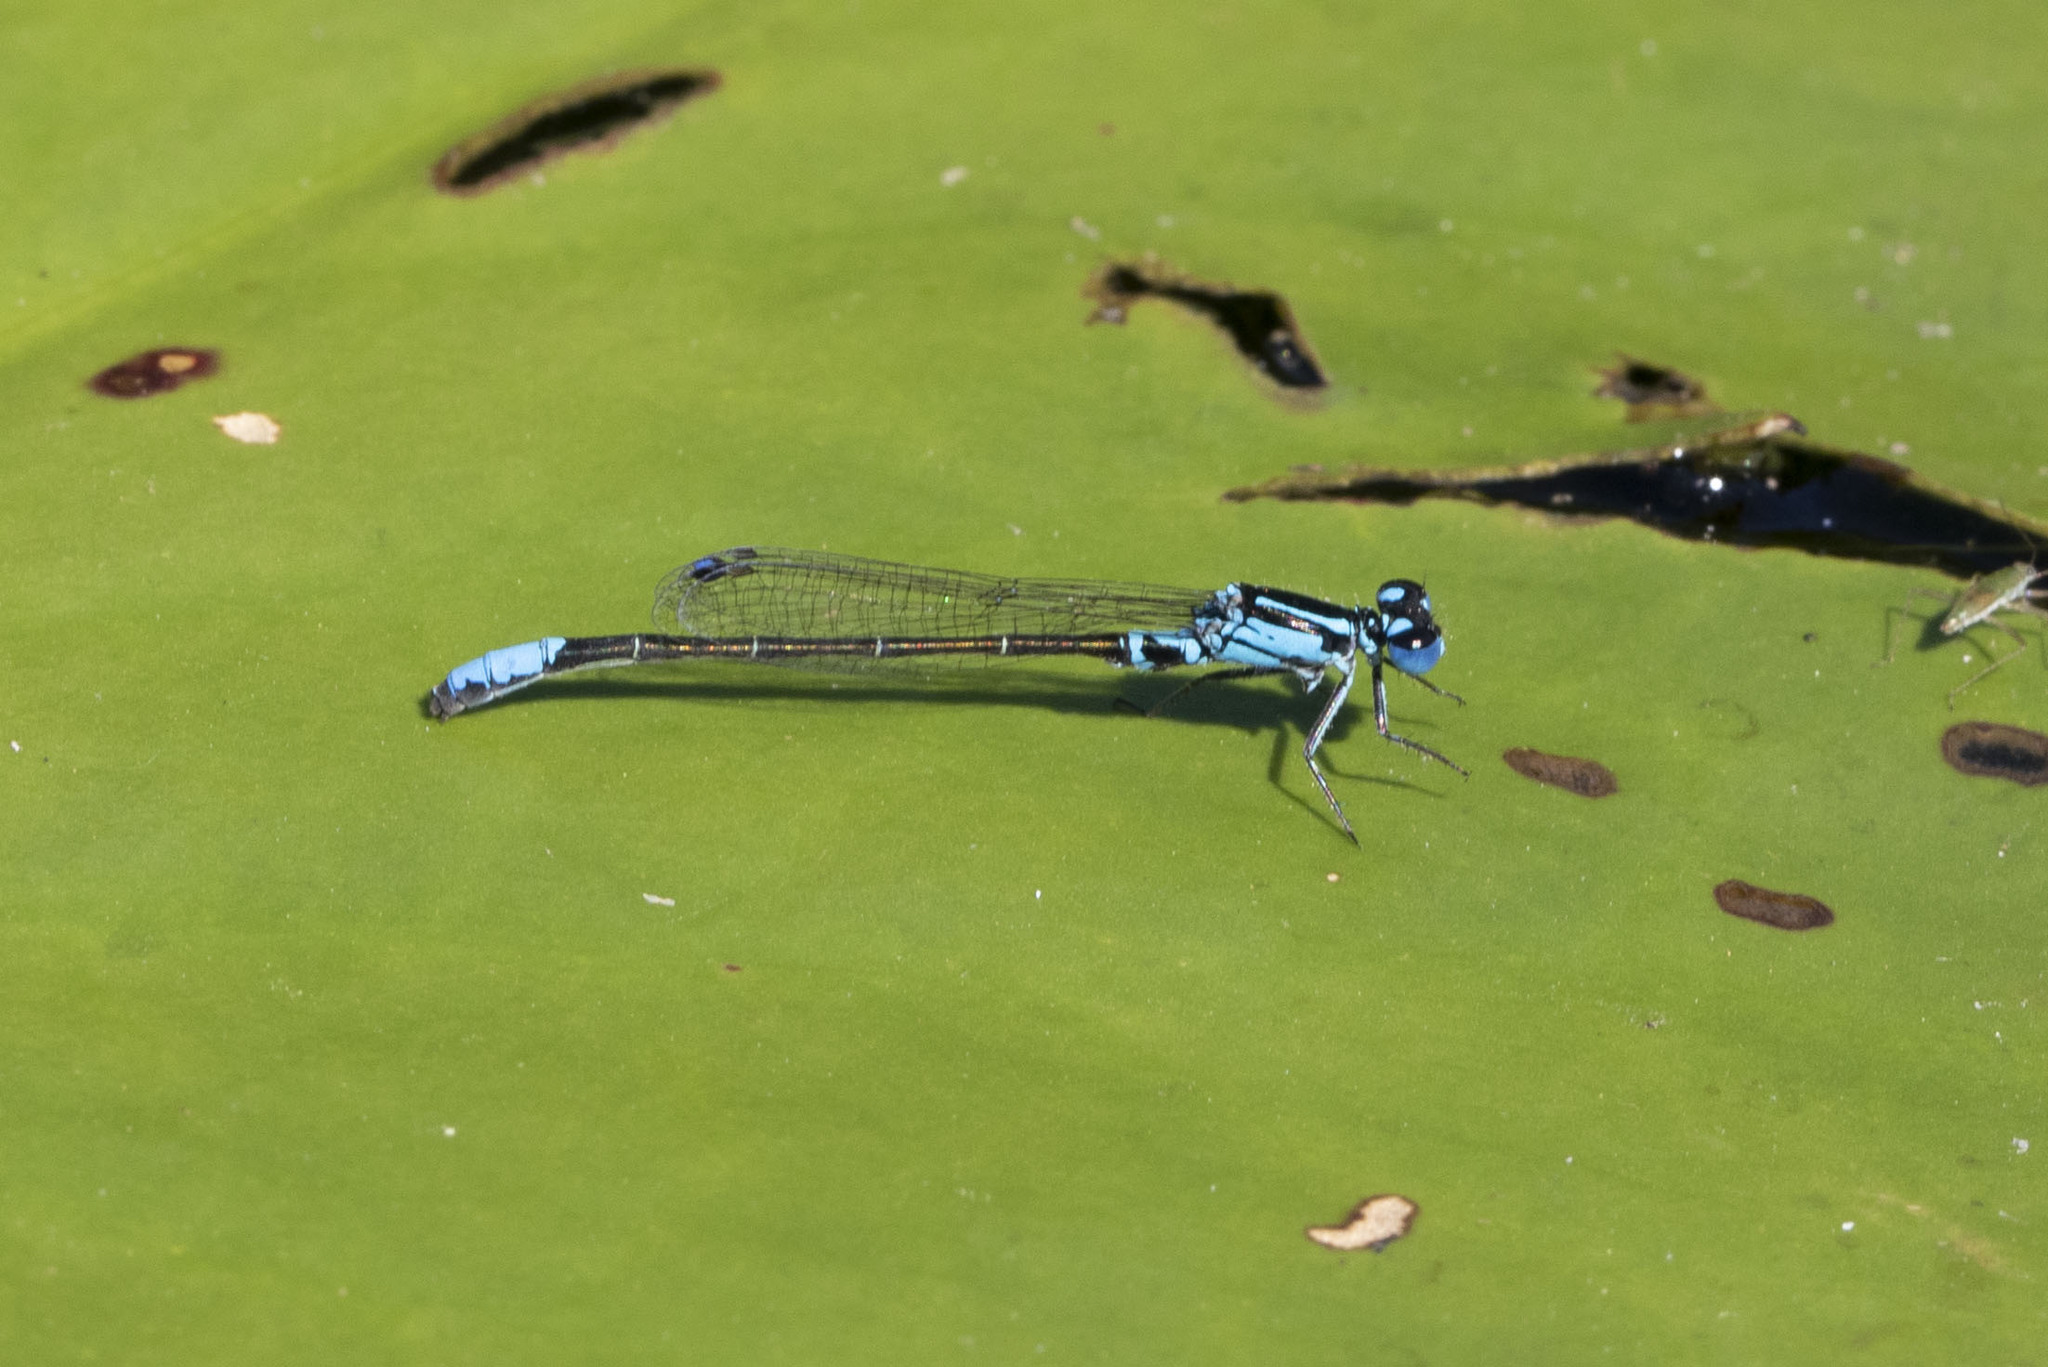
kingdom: Animalia
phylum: Arthropoda
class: Insecta
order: Odonata
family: Coenagrionidae
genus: Ischnura
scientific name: Ischnura kellicotti
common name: Lilypad forktail
